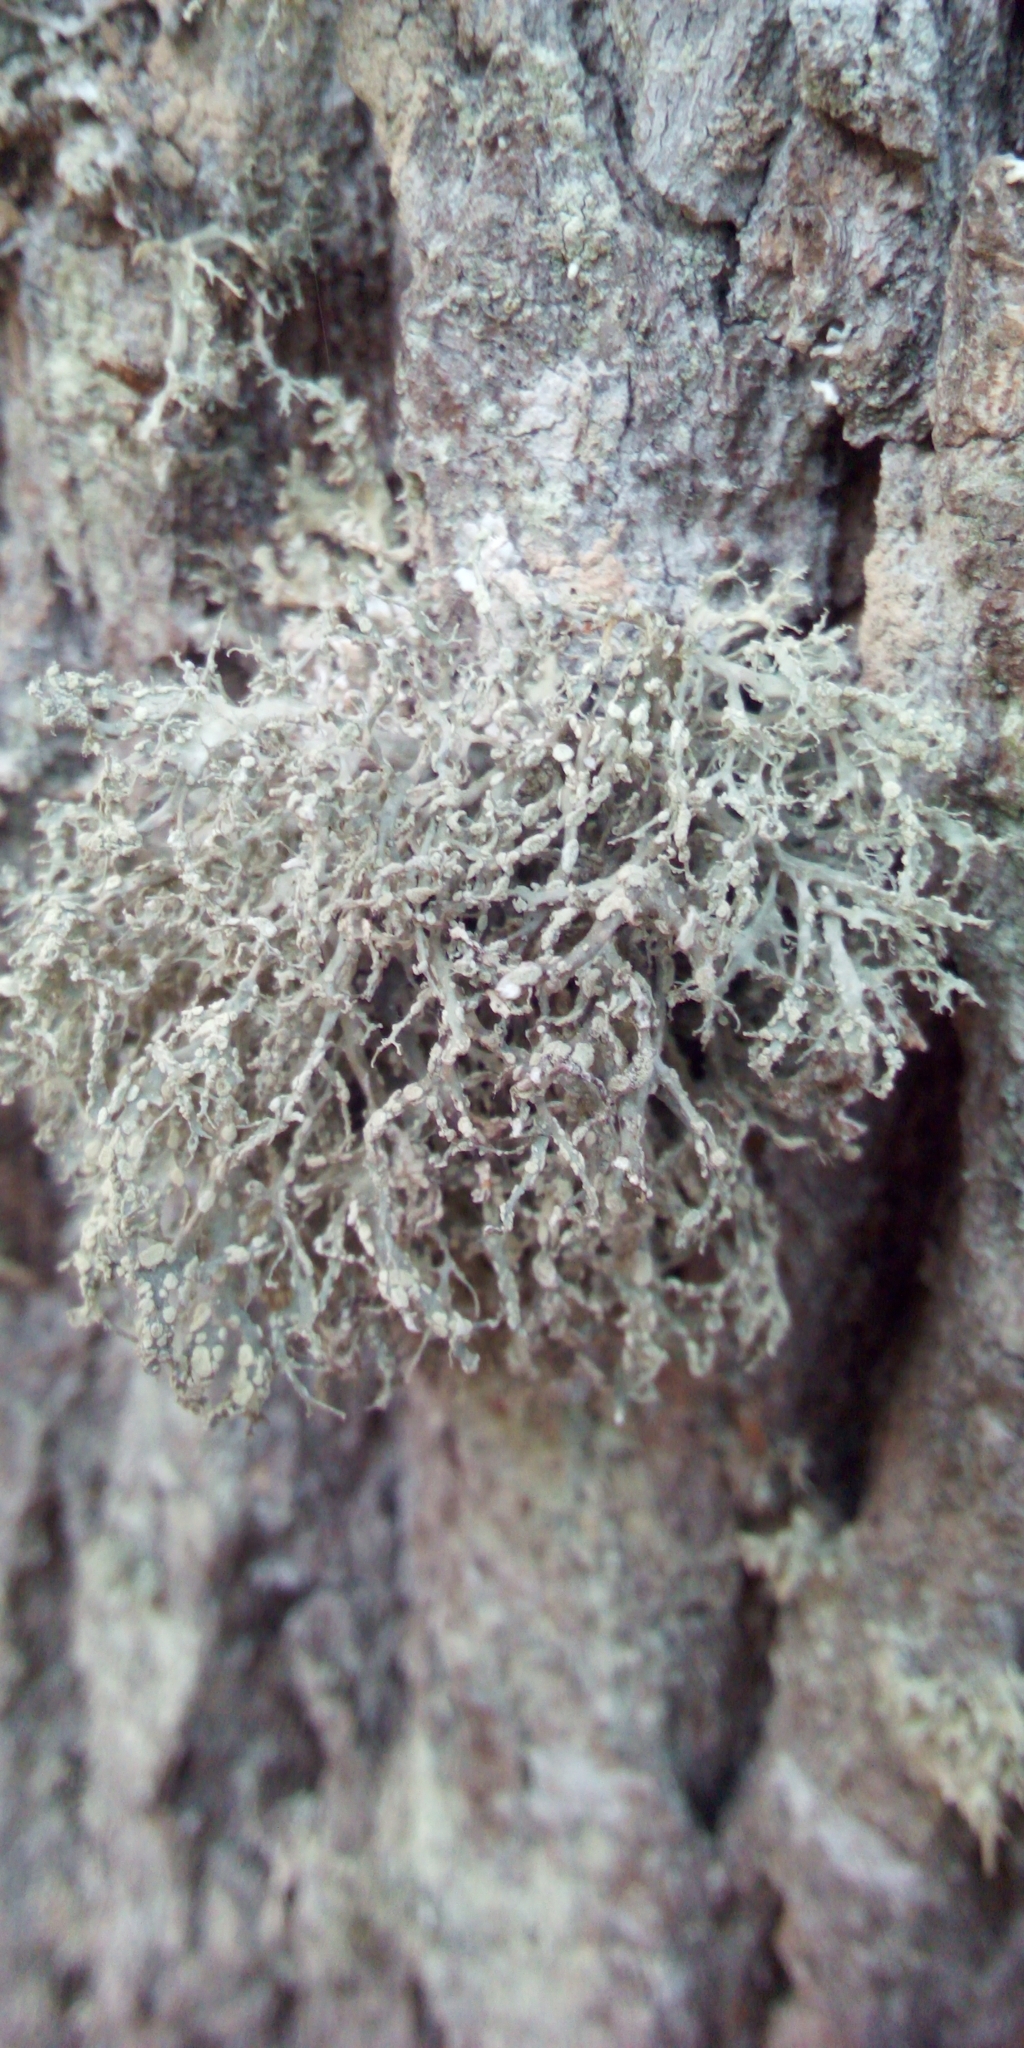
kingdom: Fungi
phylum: Ascomycota
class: Lecanoromycetes
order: Lecanorales
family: Ramalinaceae
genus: Ramalina
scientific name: Ramalina farinacea
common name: Farinose cartilage lichen
